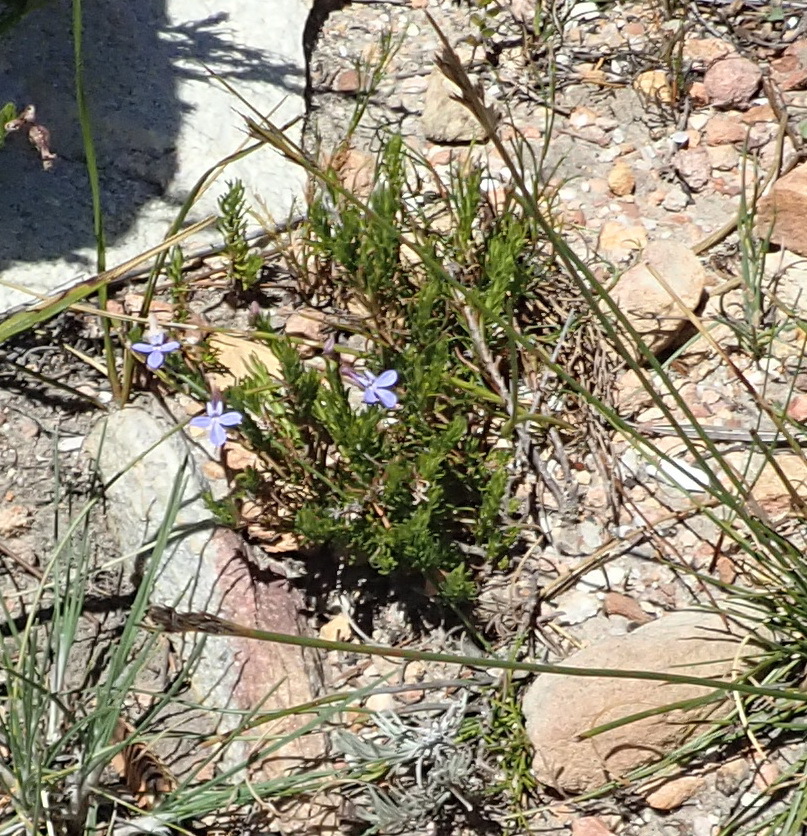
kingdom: Plantae
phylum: Tracheophyta
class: Magnoliopsida
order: Asterales
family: Campanulaceae
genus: Lobelia
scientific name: Lobelia pinifolia
